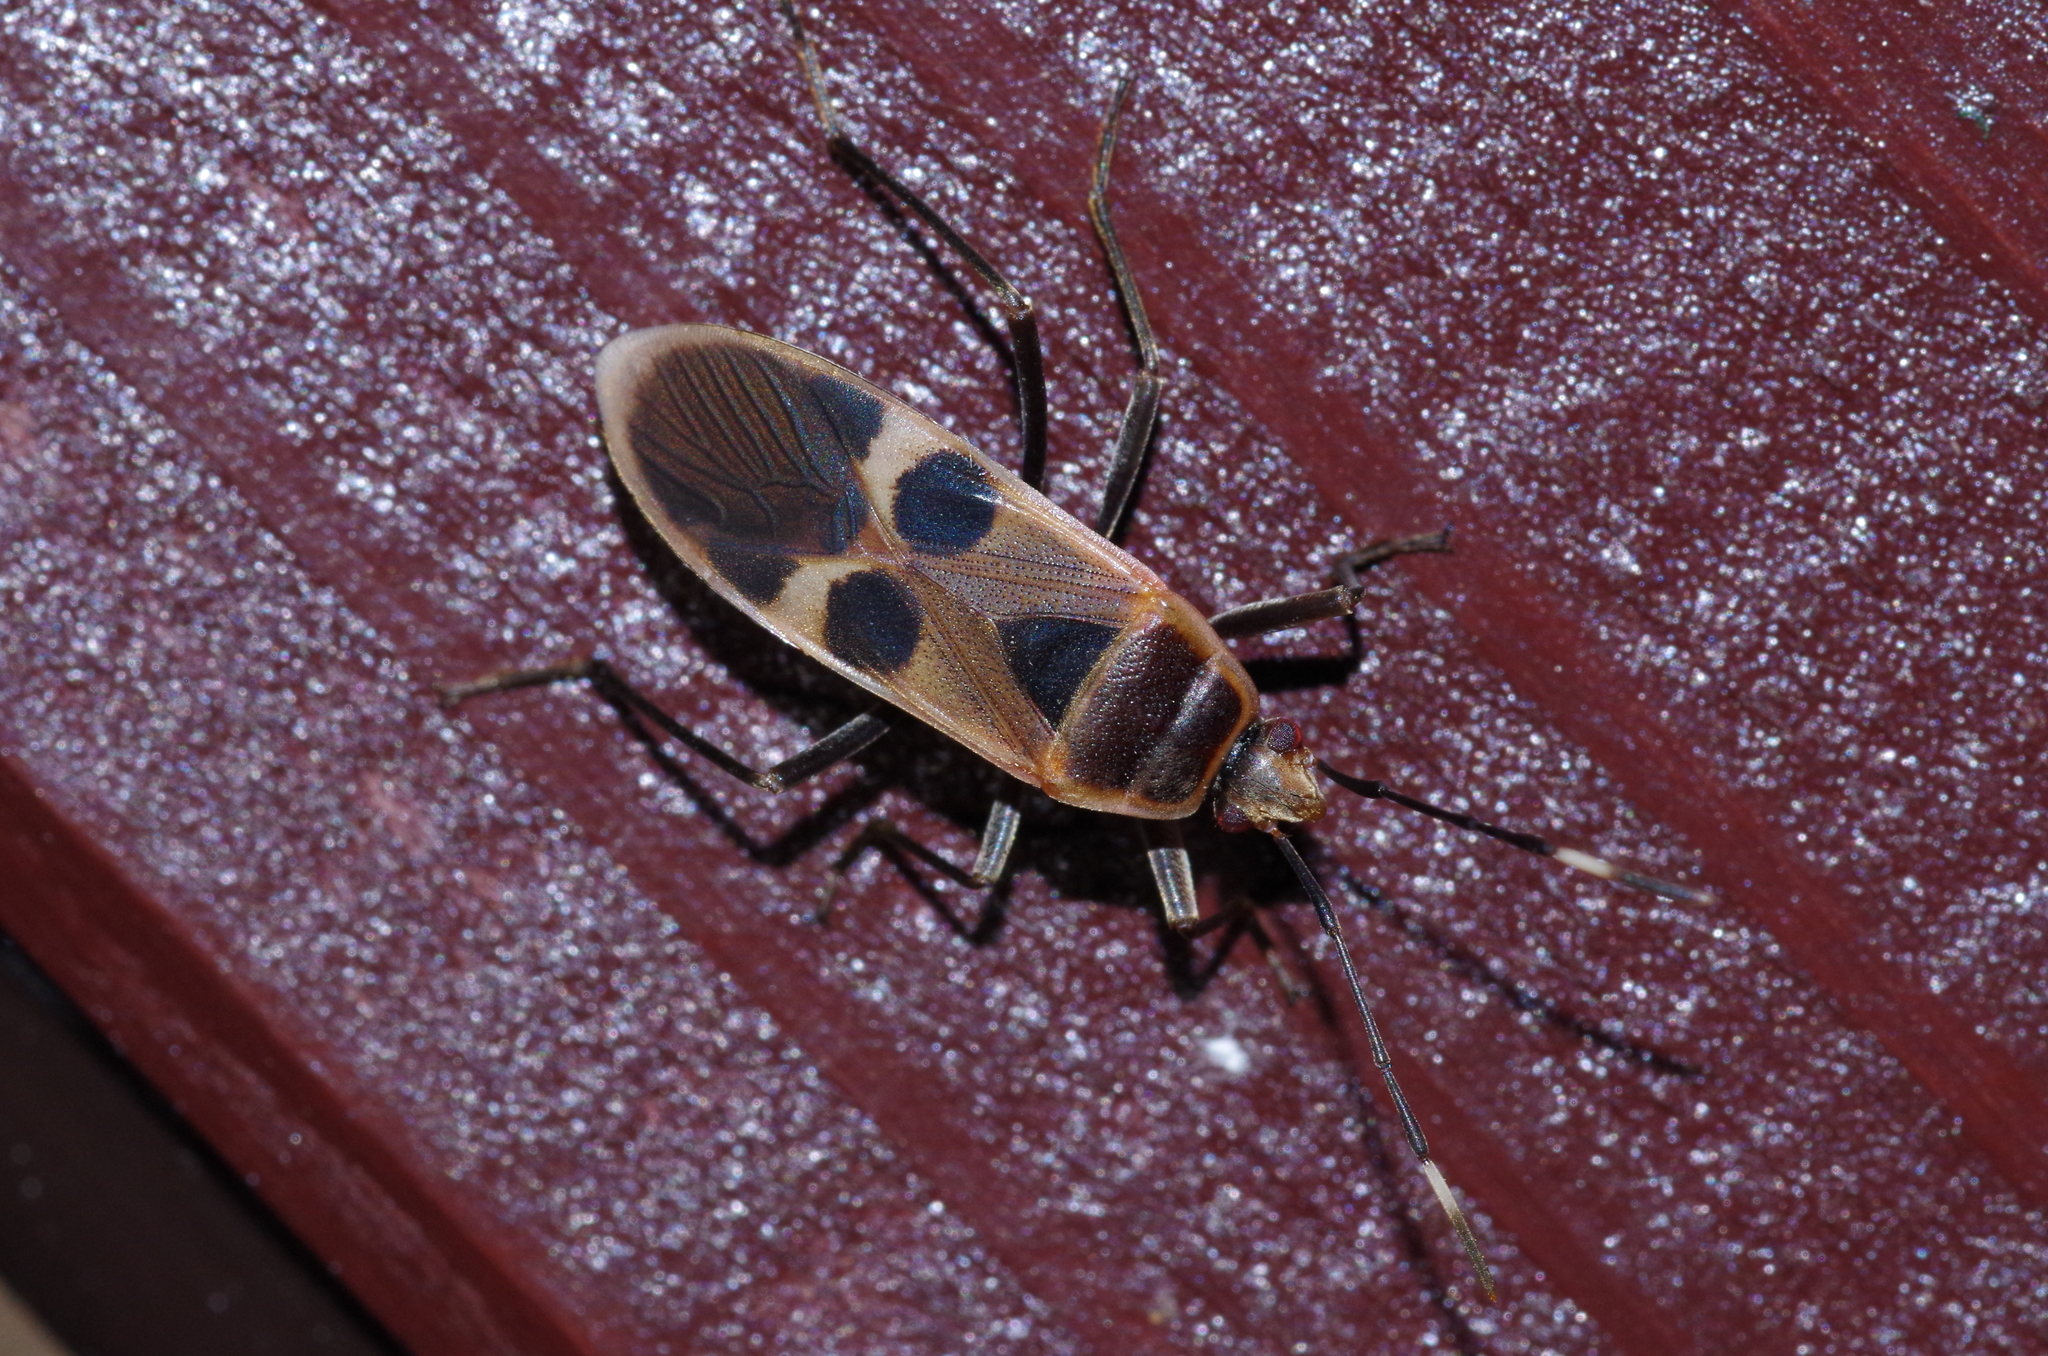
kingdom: Animalia
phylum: Arthropoda
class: Insecta
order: Hemiptera
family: Largidae
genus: Physopelta
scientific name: Physopelta gutta
